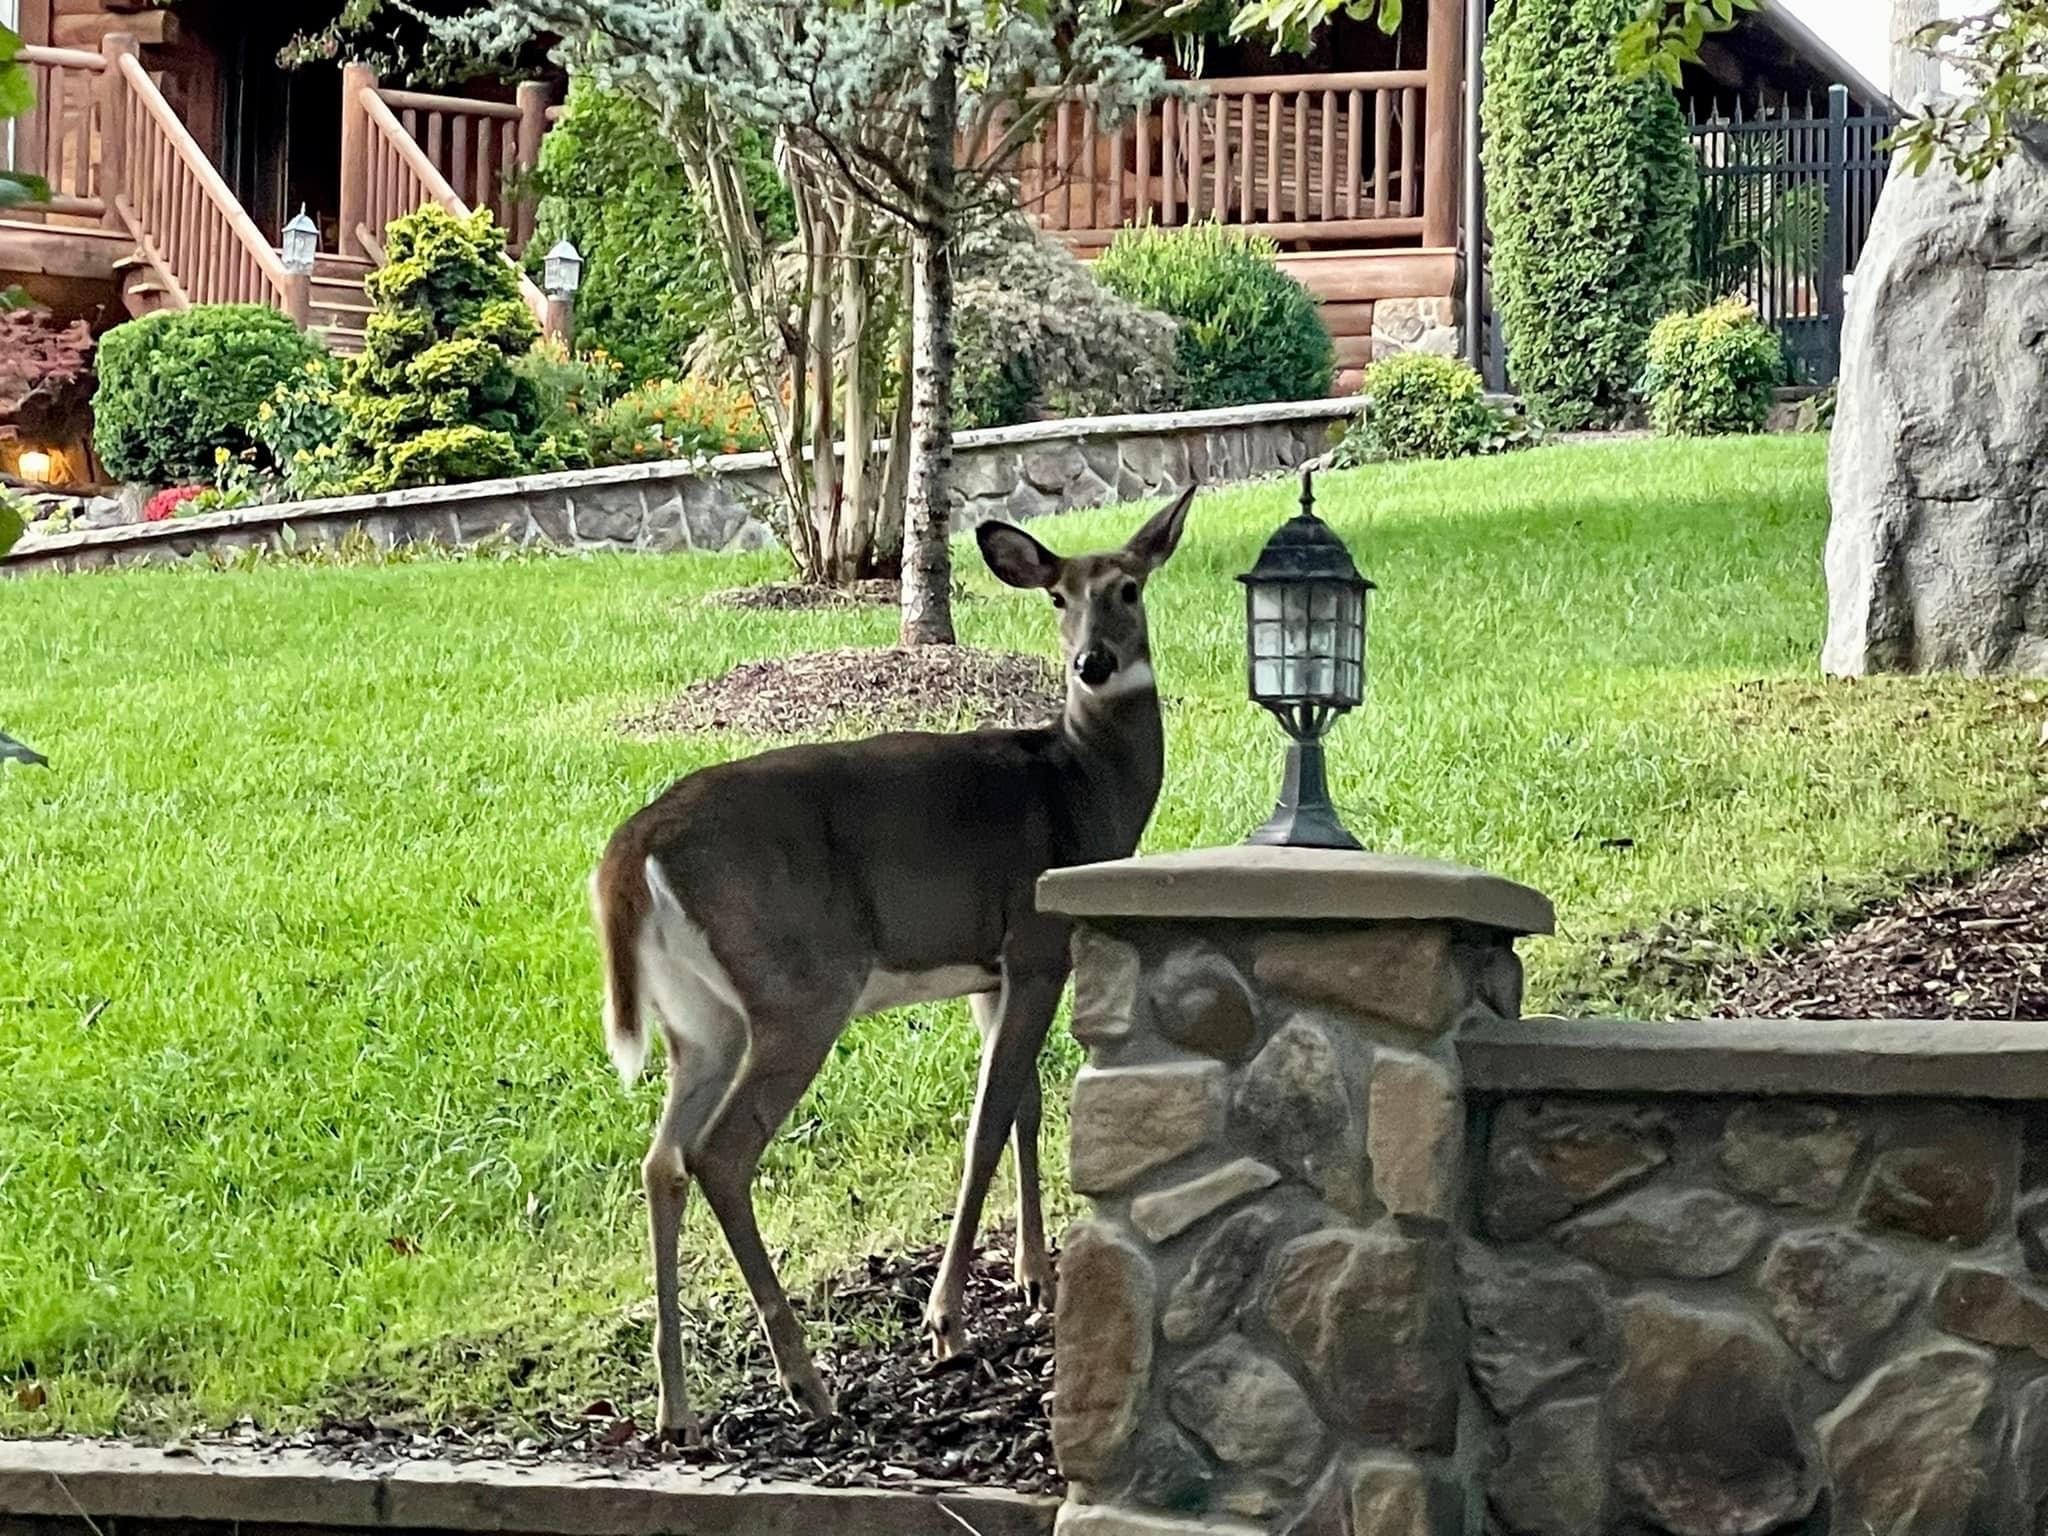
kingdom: Animalia
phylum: Chordata
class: Mammalia
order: Artiodactyla
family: Cervidae
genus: Odocoileus
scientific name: Odocoileus virginianus
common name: White-tailed deer
